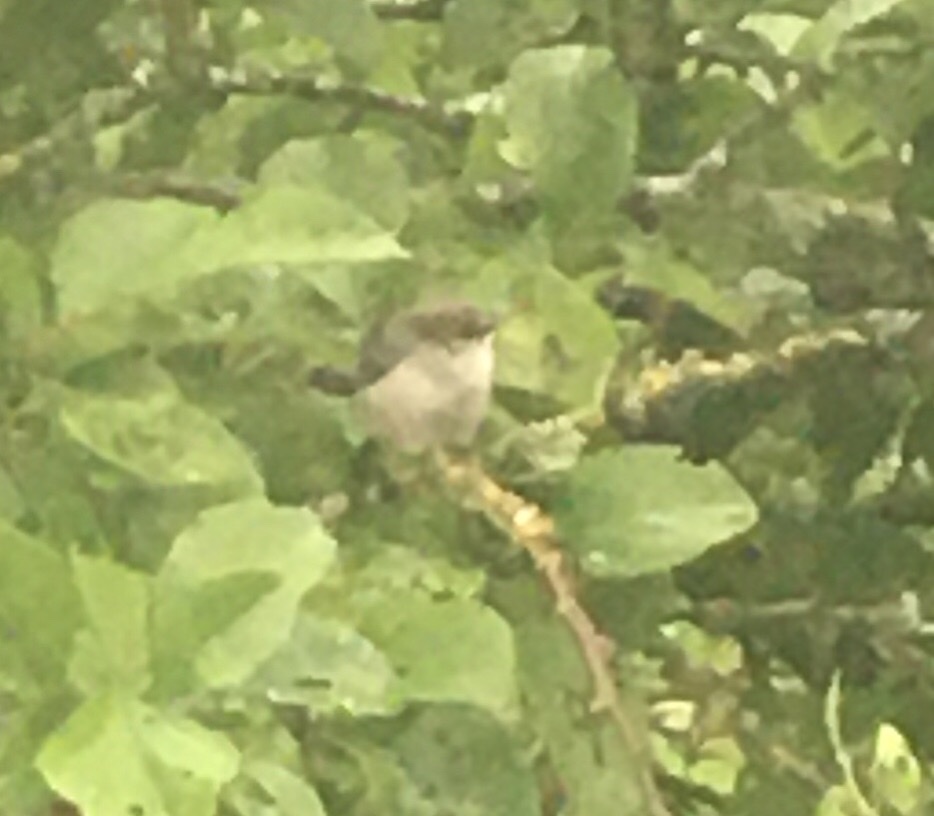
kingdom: Animalia
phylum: Chordata
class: Aves
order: Passeriformes
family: Aegithalidae
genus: Psaltriparus
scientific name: Psaltriparus minimus
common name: American bushtit
